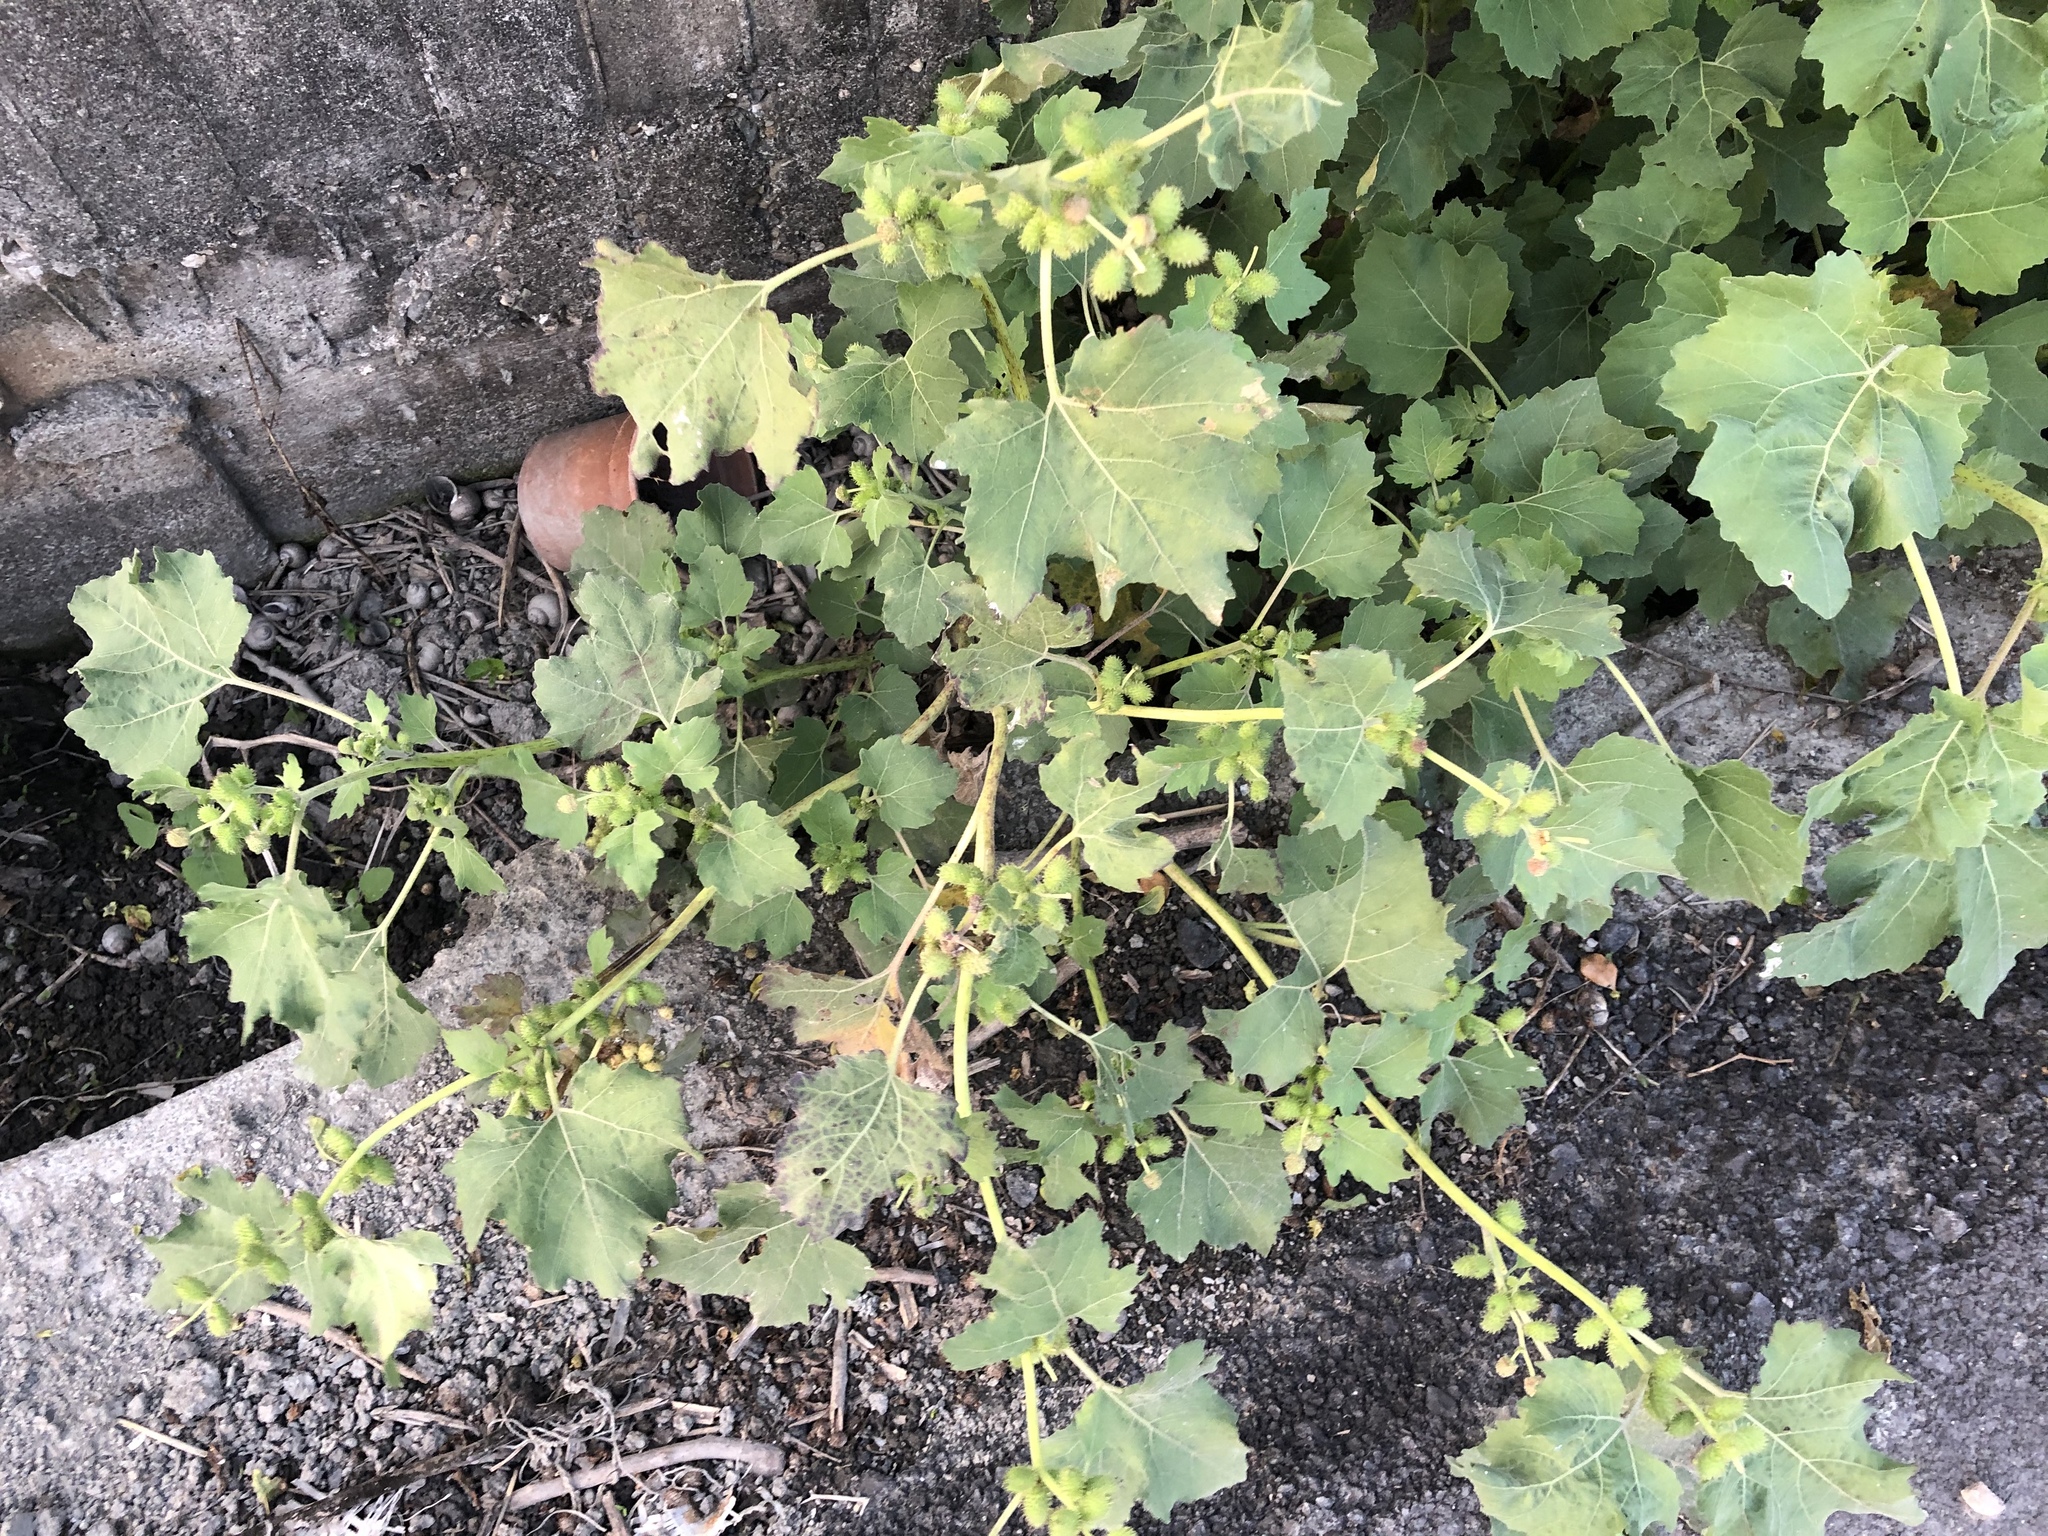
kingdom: Plantae
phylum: Tracheophyta
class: Magnoliopsida
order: Asterales
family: Asteraceae
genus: Xanthium
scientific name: Xanthium strumarium
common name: Rough cocklebur
